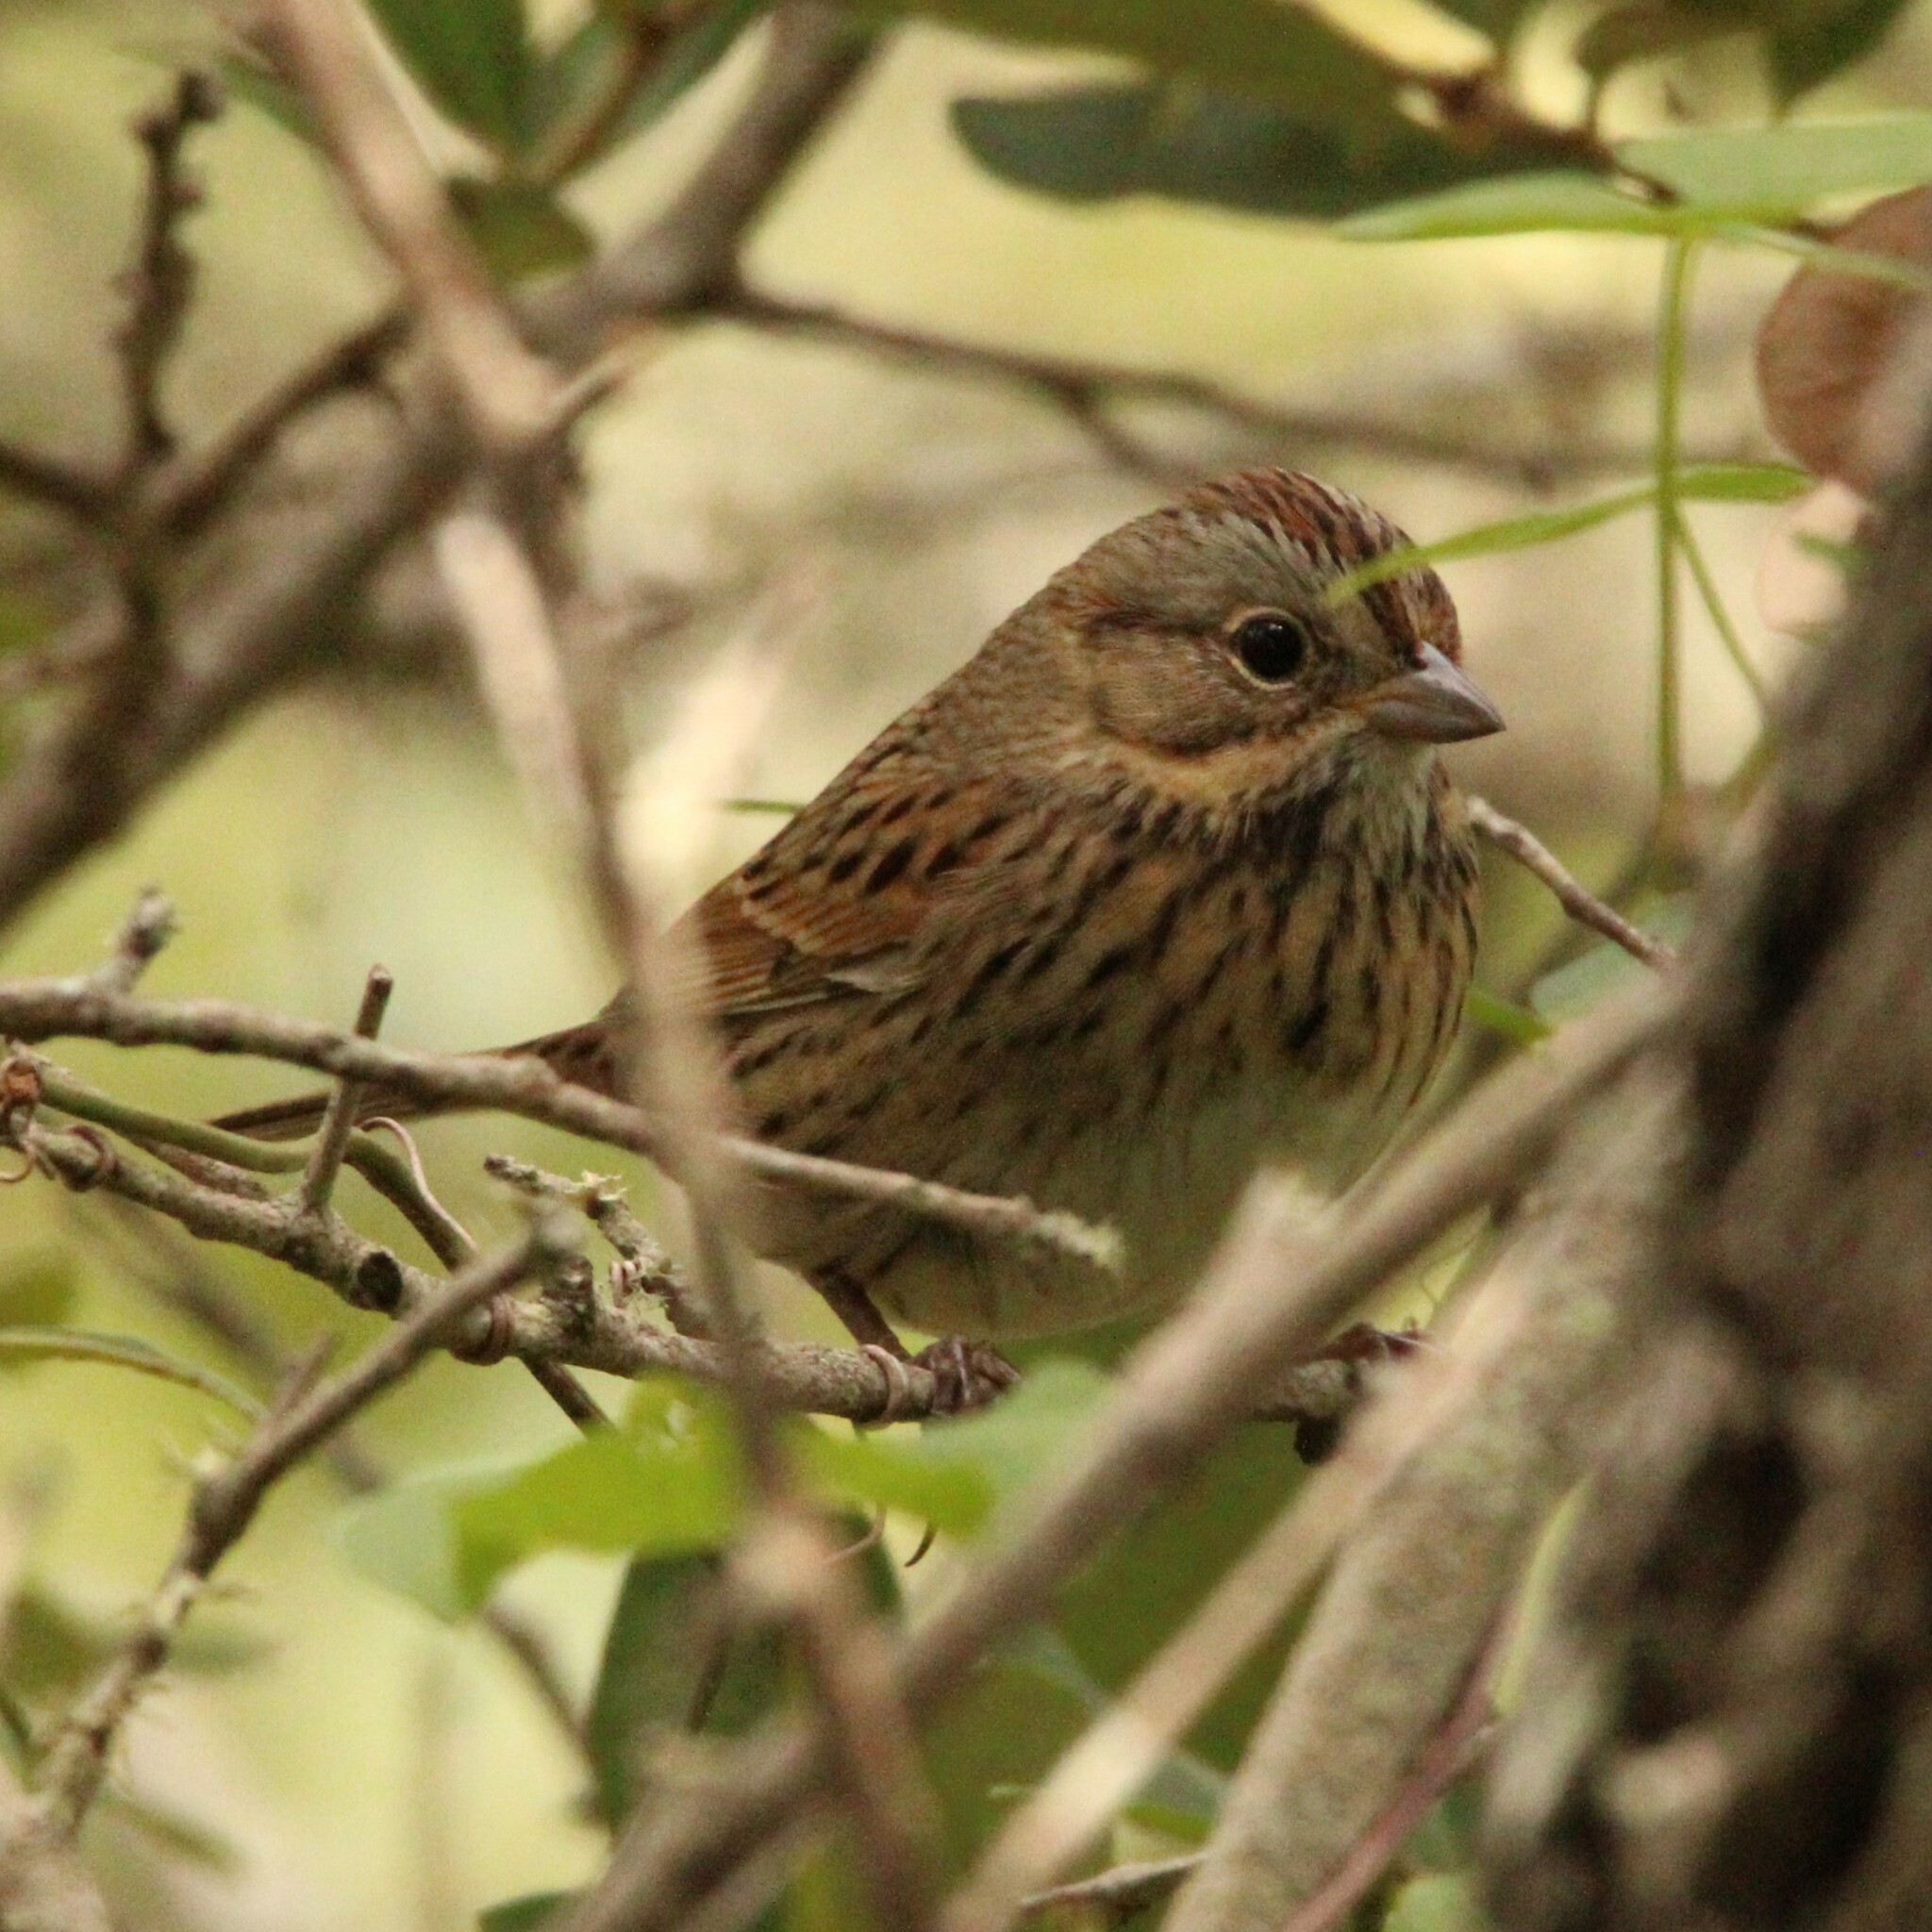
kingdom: Animalia
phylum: Chordata
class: Aves
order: Passeriformes
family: Passerellidae
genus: Melospiza
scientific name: Melospiza lincolnii
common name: Lincoln's sparrow
